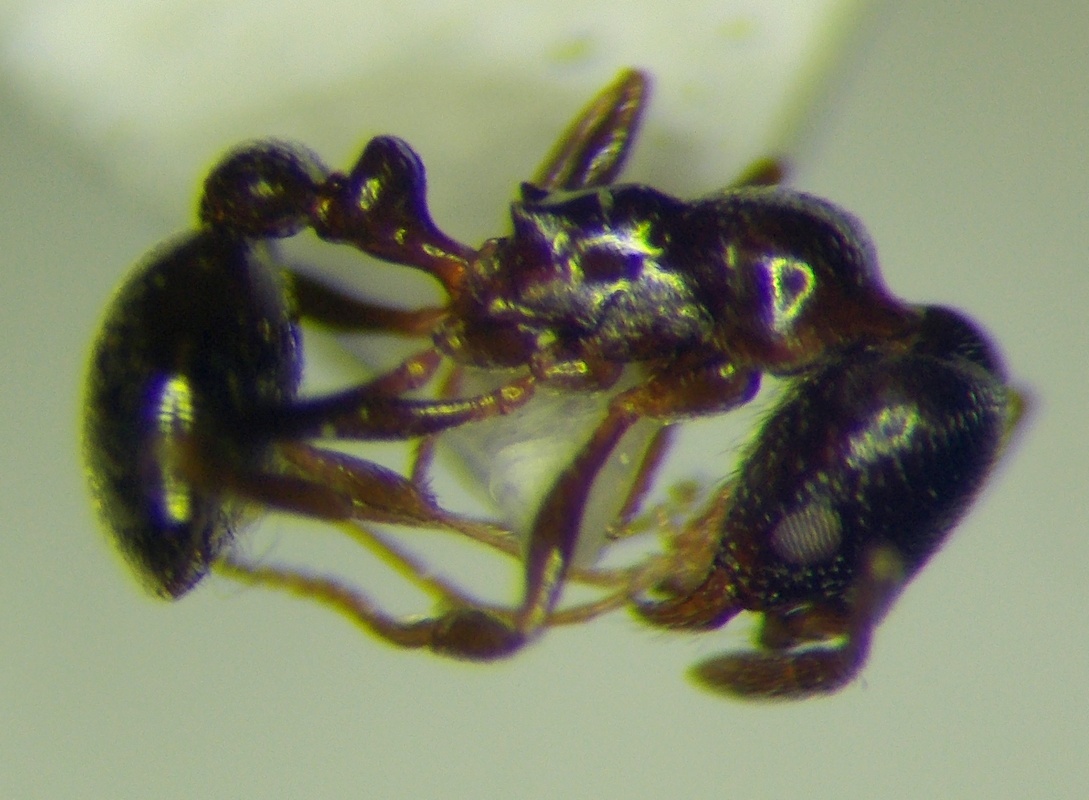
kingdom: Animalia
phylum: Arthropoda
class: Insecta
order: Hymenoptera
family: Formicidae
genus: Cardiocondyla
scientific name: Cardiocondyla sahlbergi
